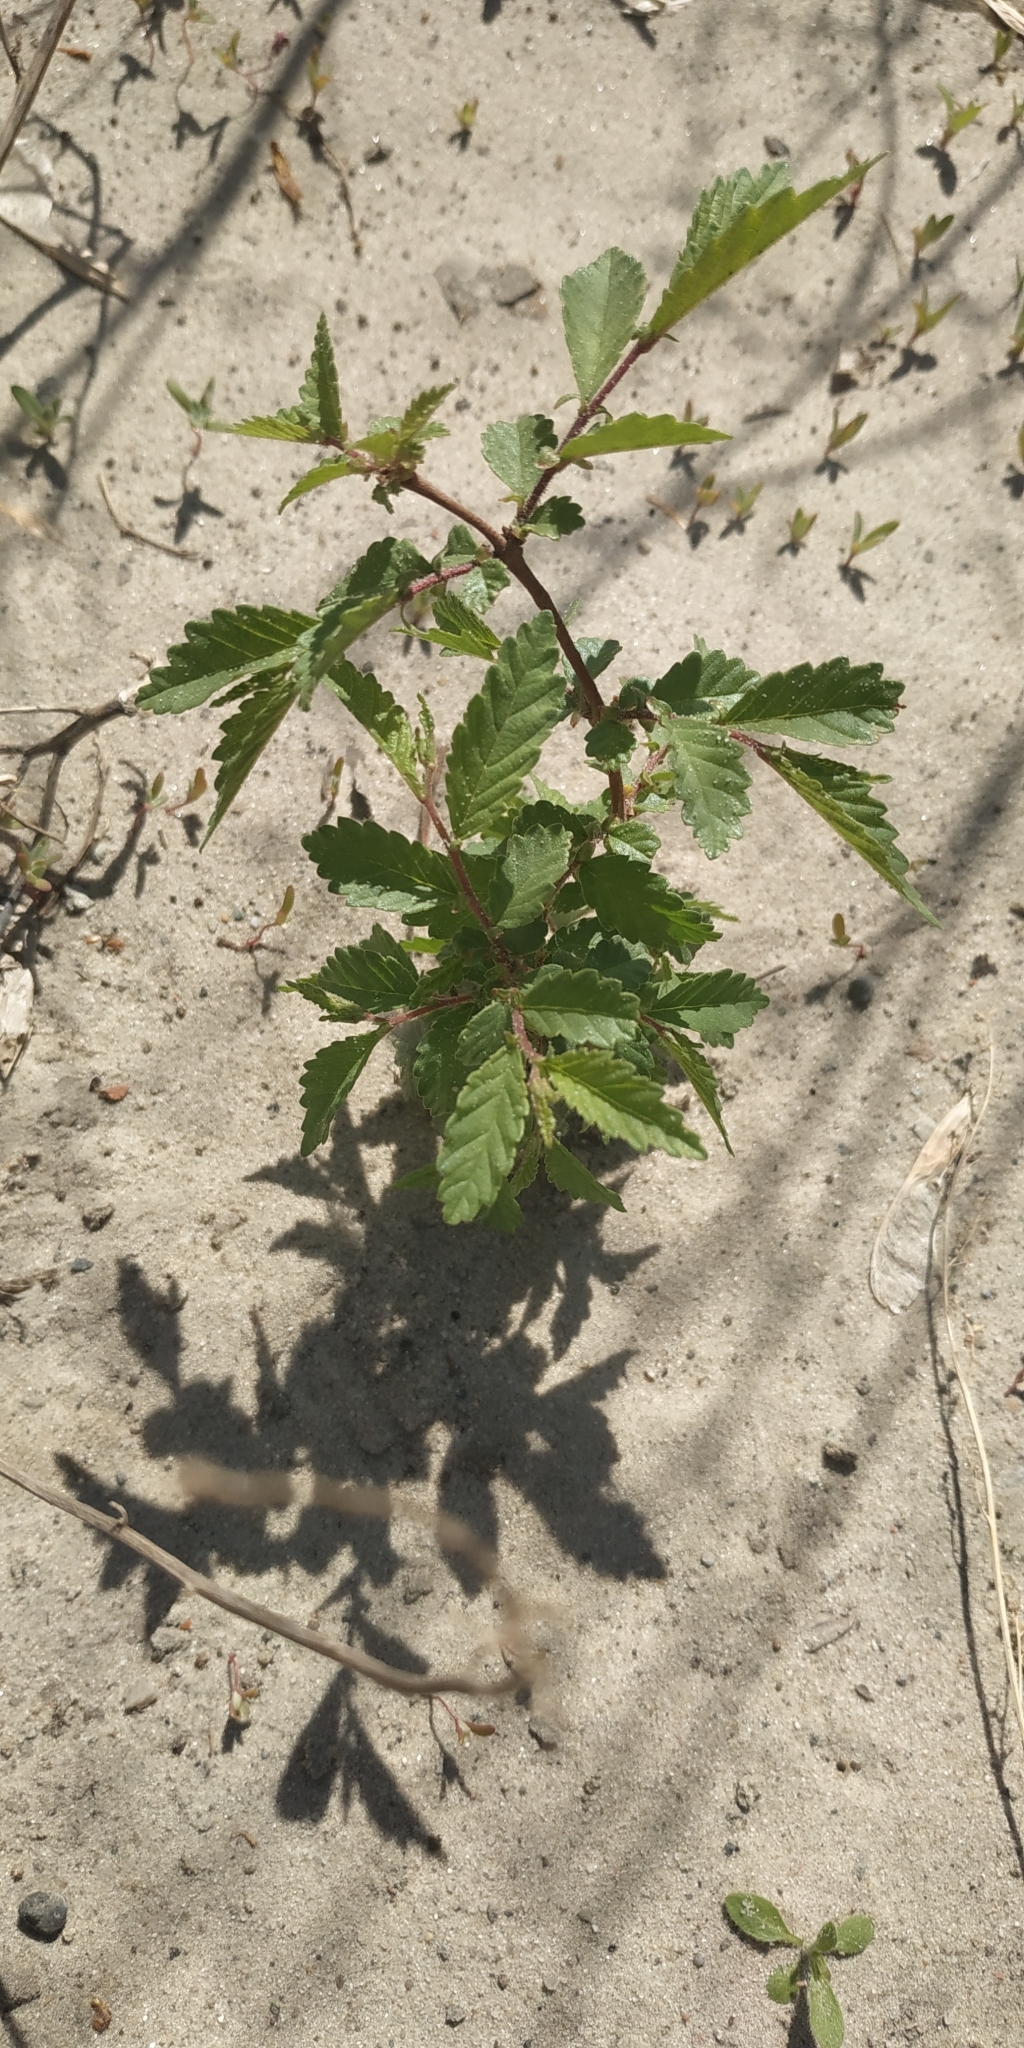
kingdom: Plantae
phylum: Tracheophyta
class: Magnoliopsida
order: Rosales
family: Ulmaceae
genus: Ulmus
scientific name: Ulmus pumila
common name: Siberian elm
